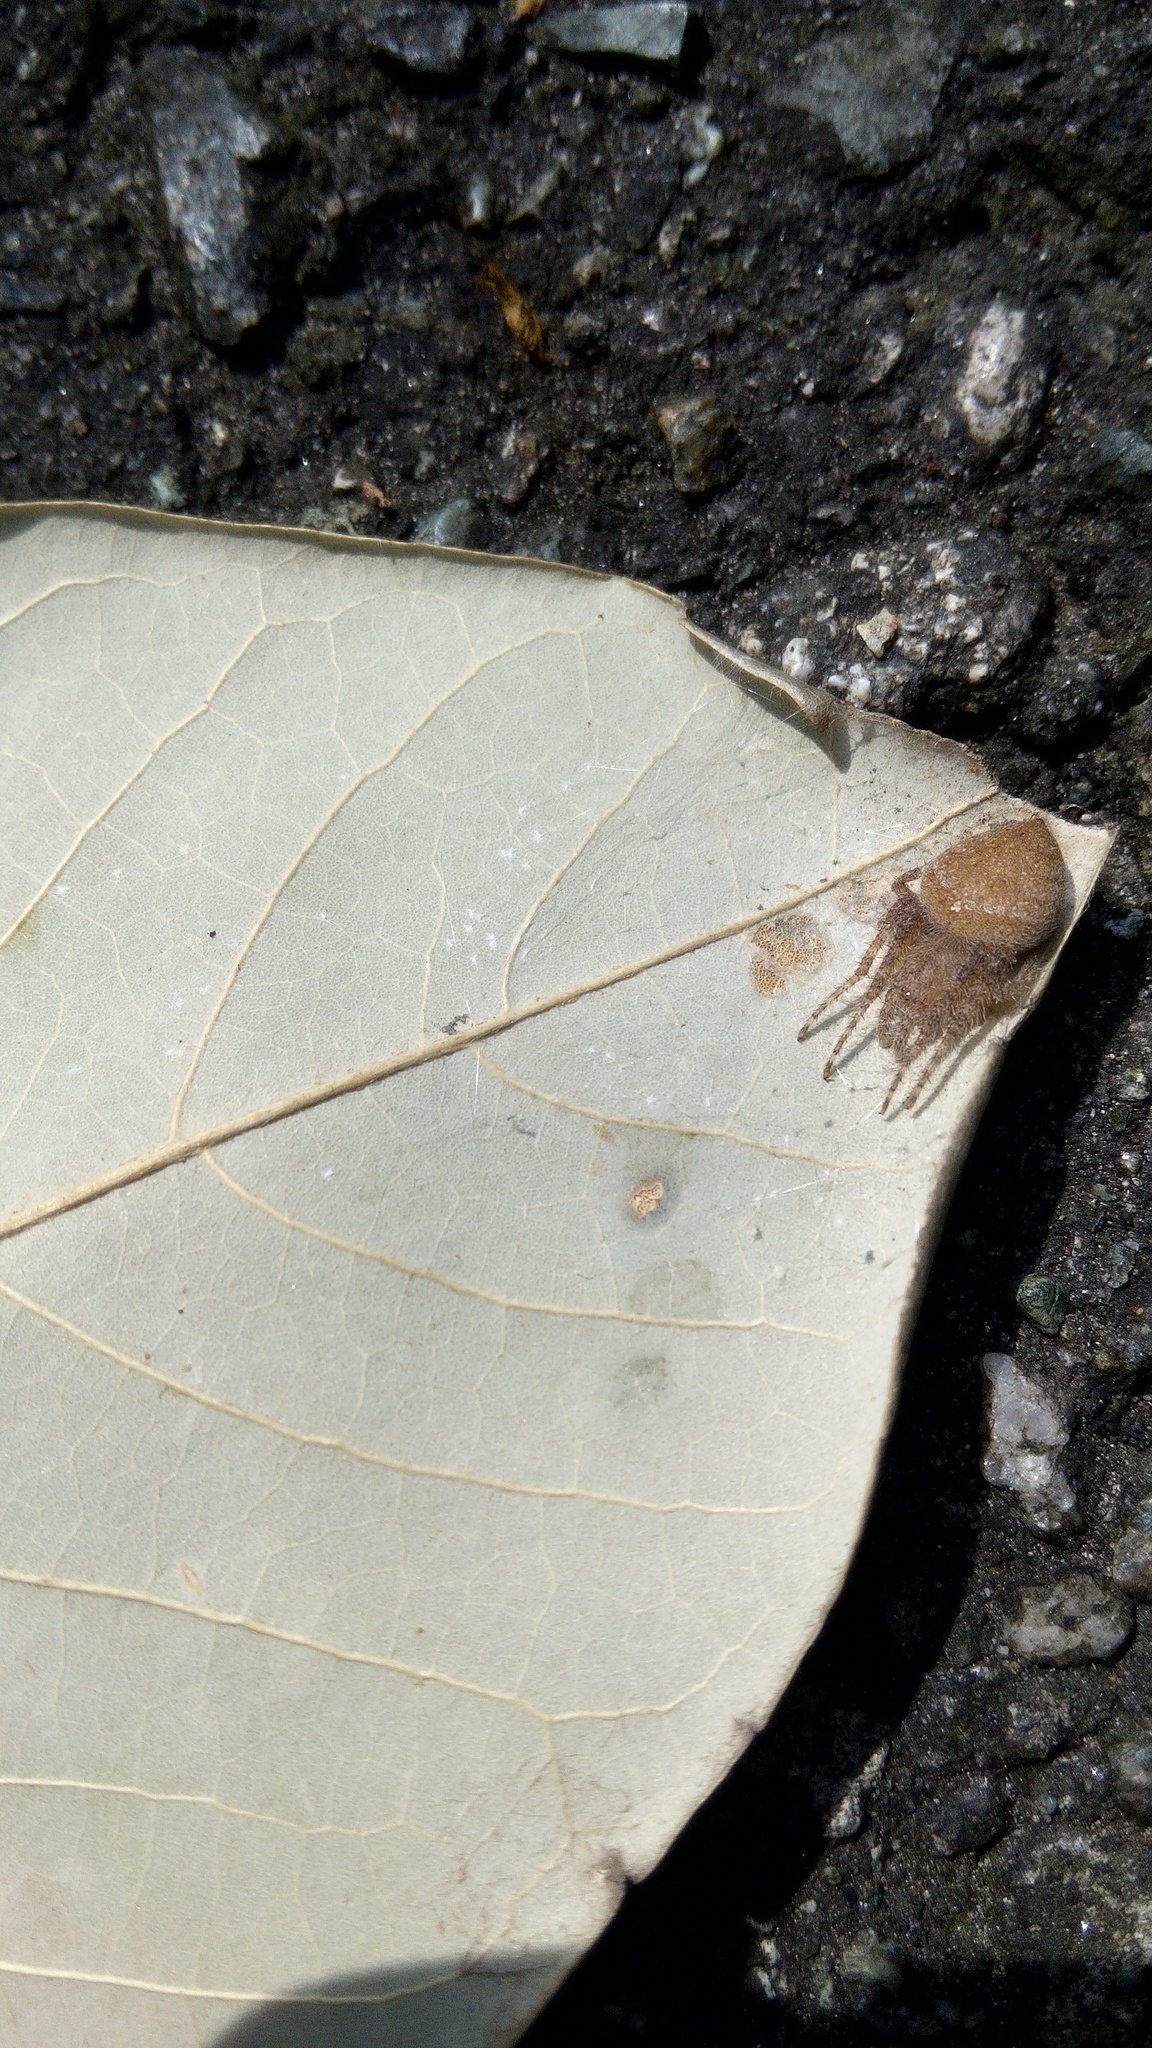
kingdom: Animalia
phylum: Arthropoda
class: Arachnida
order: Araneae
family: Araneidae
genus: Eriophora
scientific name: Eriophora edax
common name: Orb weavers
